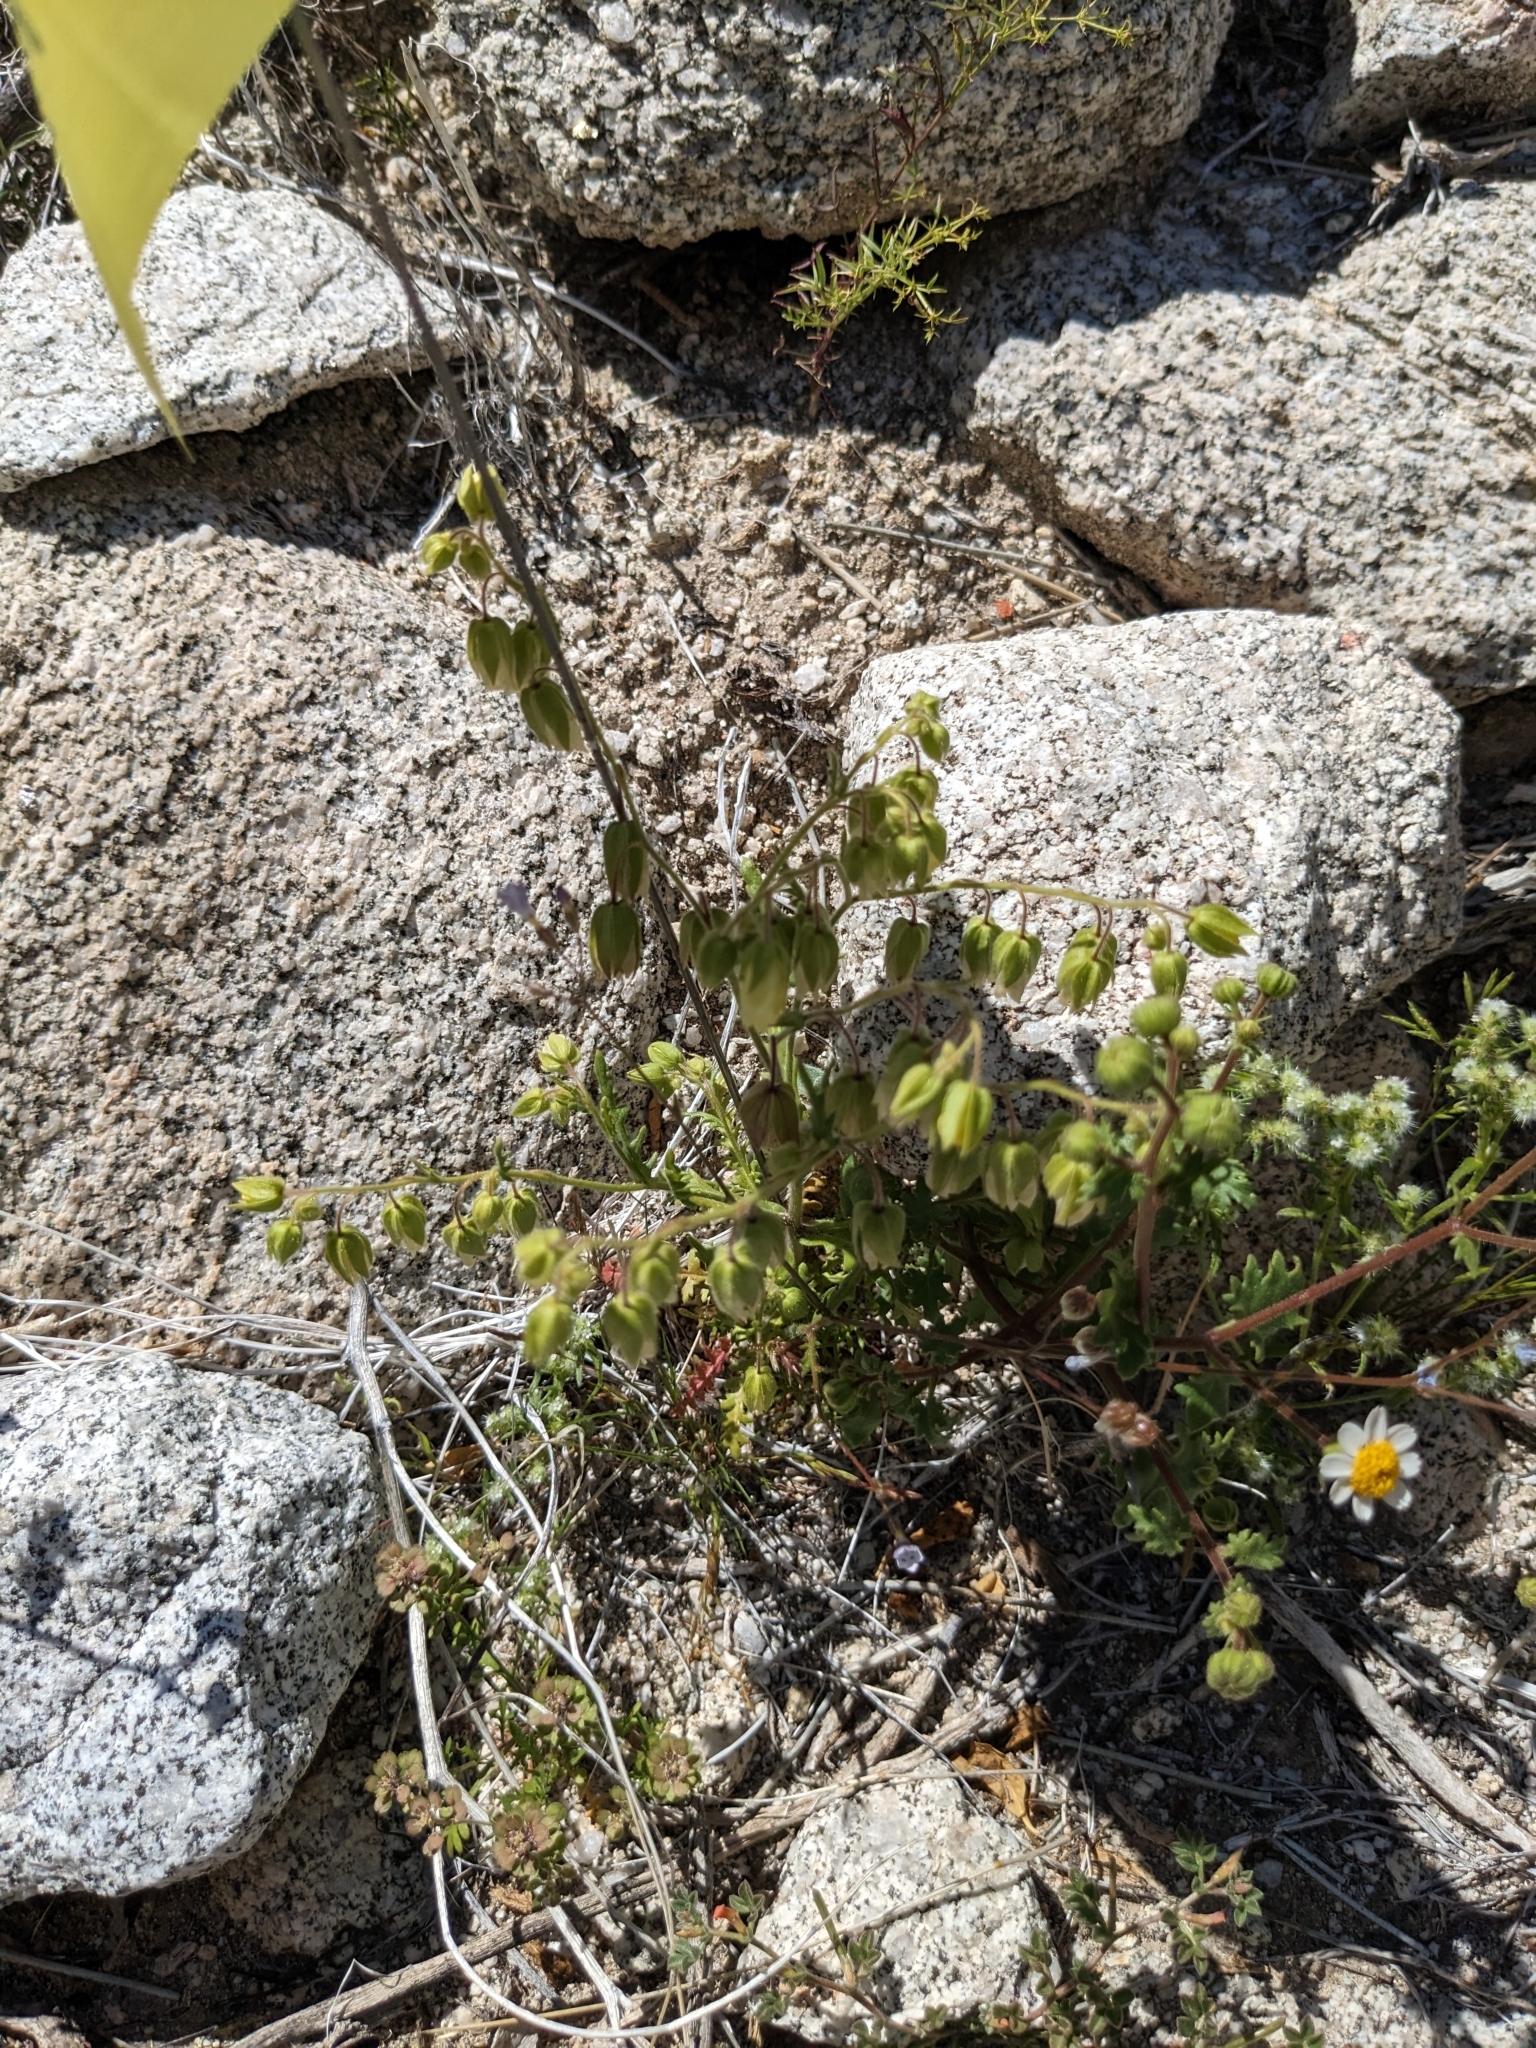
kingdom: Plantae
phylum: Tracheophyta
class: Magnoliopsida
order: Boraginales
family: Hydrophyllaceae
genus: Emmenanthe
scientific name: Emmenanthe penduliflora
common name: Whispering-bells
